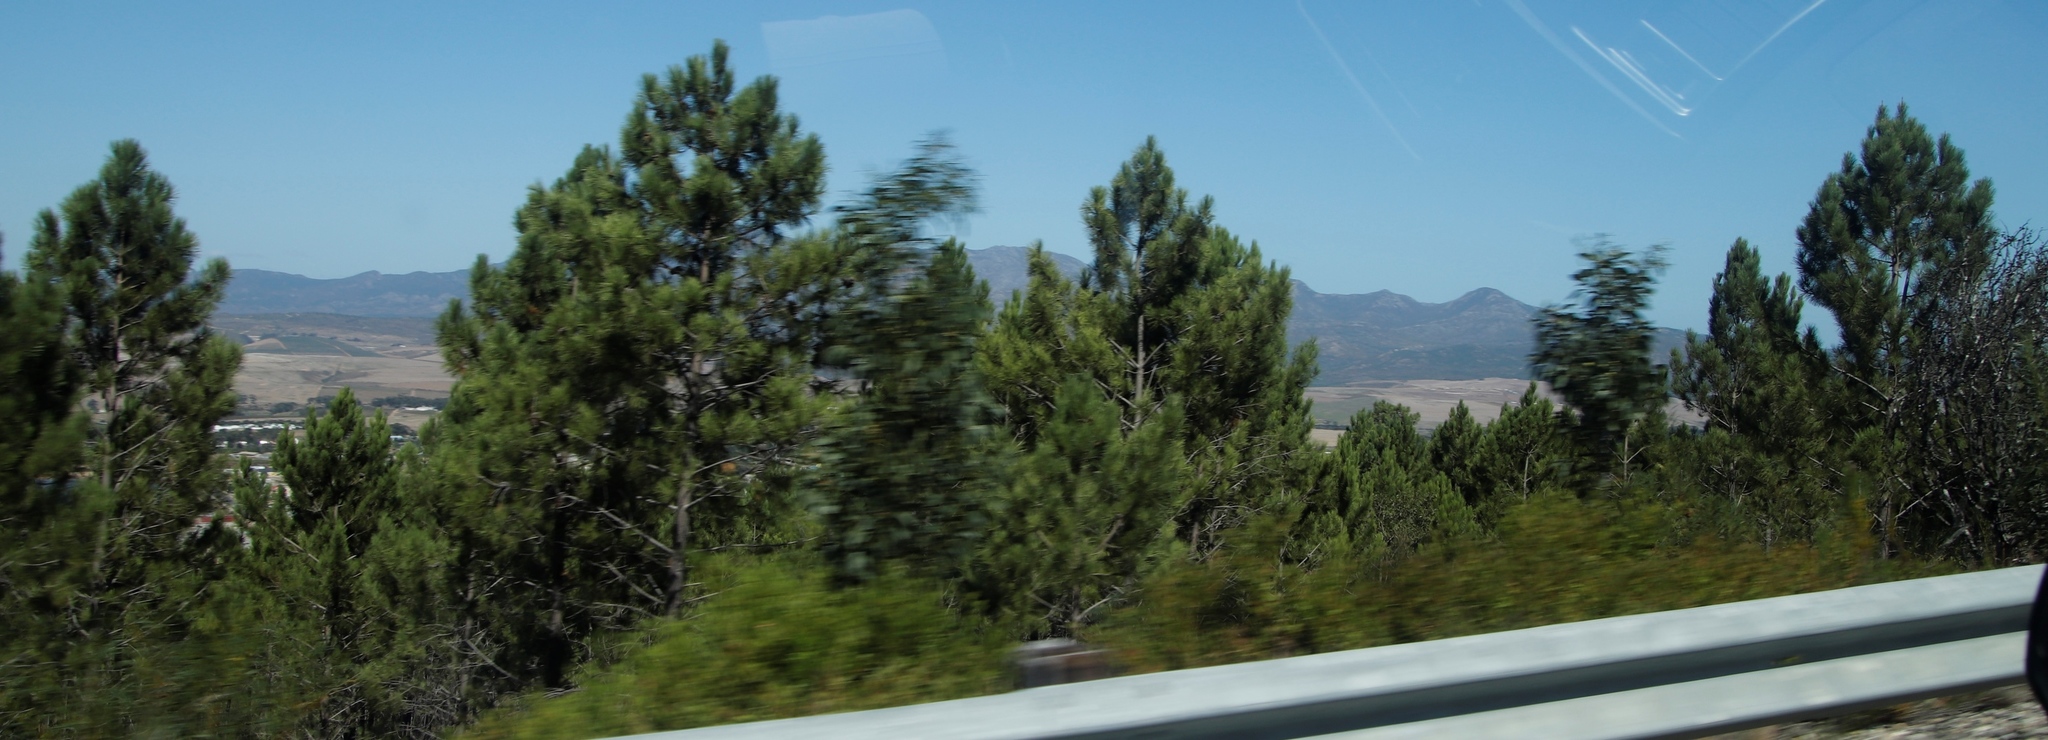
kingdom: Plantae
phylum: Tracheophyta
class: Magnoliopsida
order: Fabales
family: Fabaceae
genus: Paraserianthes
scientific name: Paraserianthes lophantha
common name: Plume albizia
